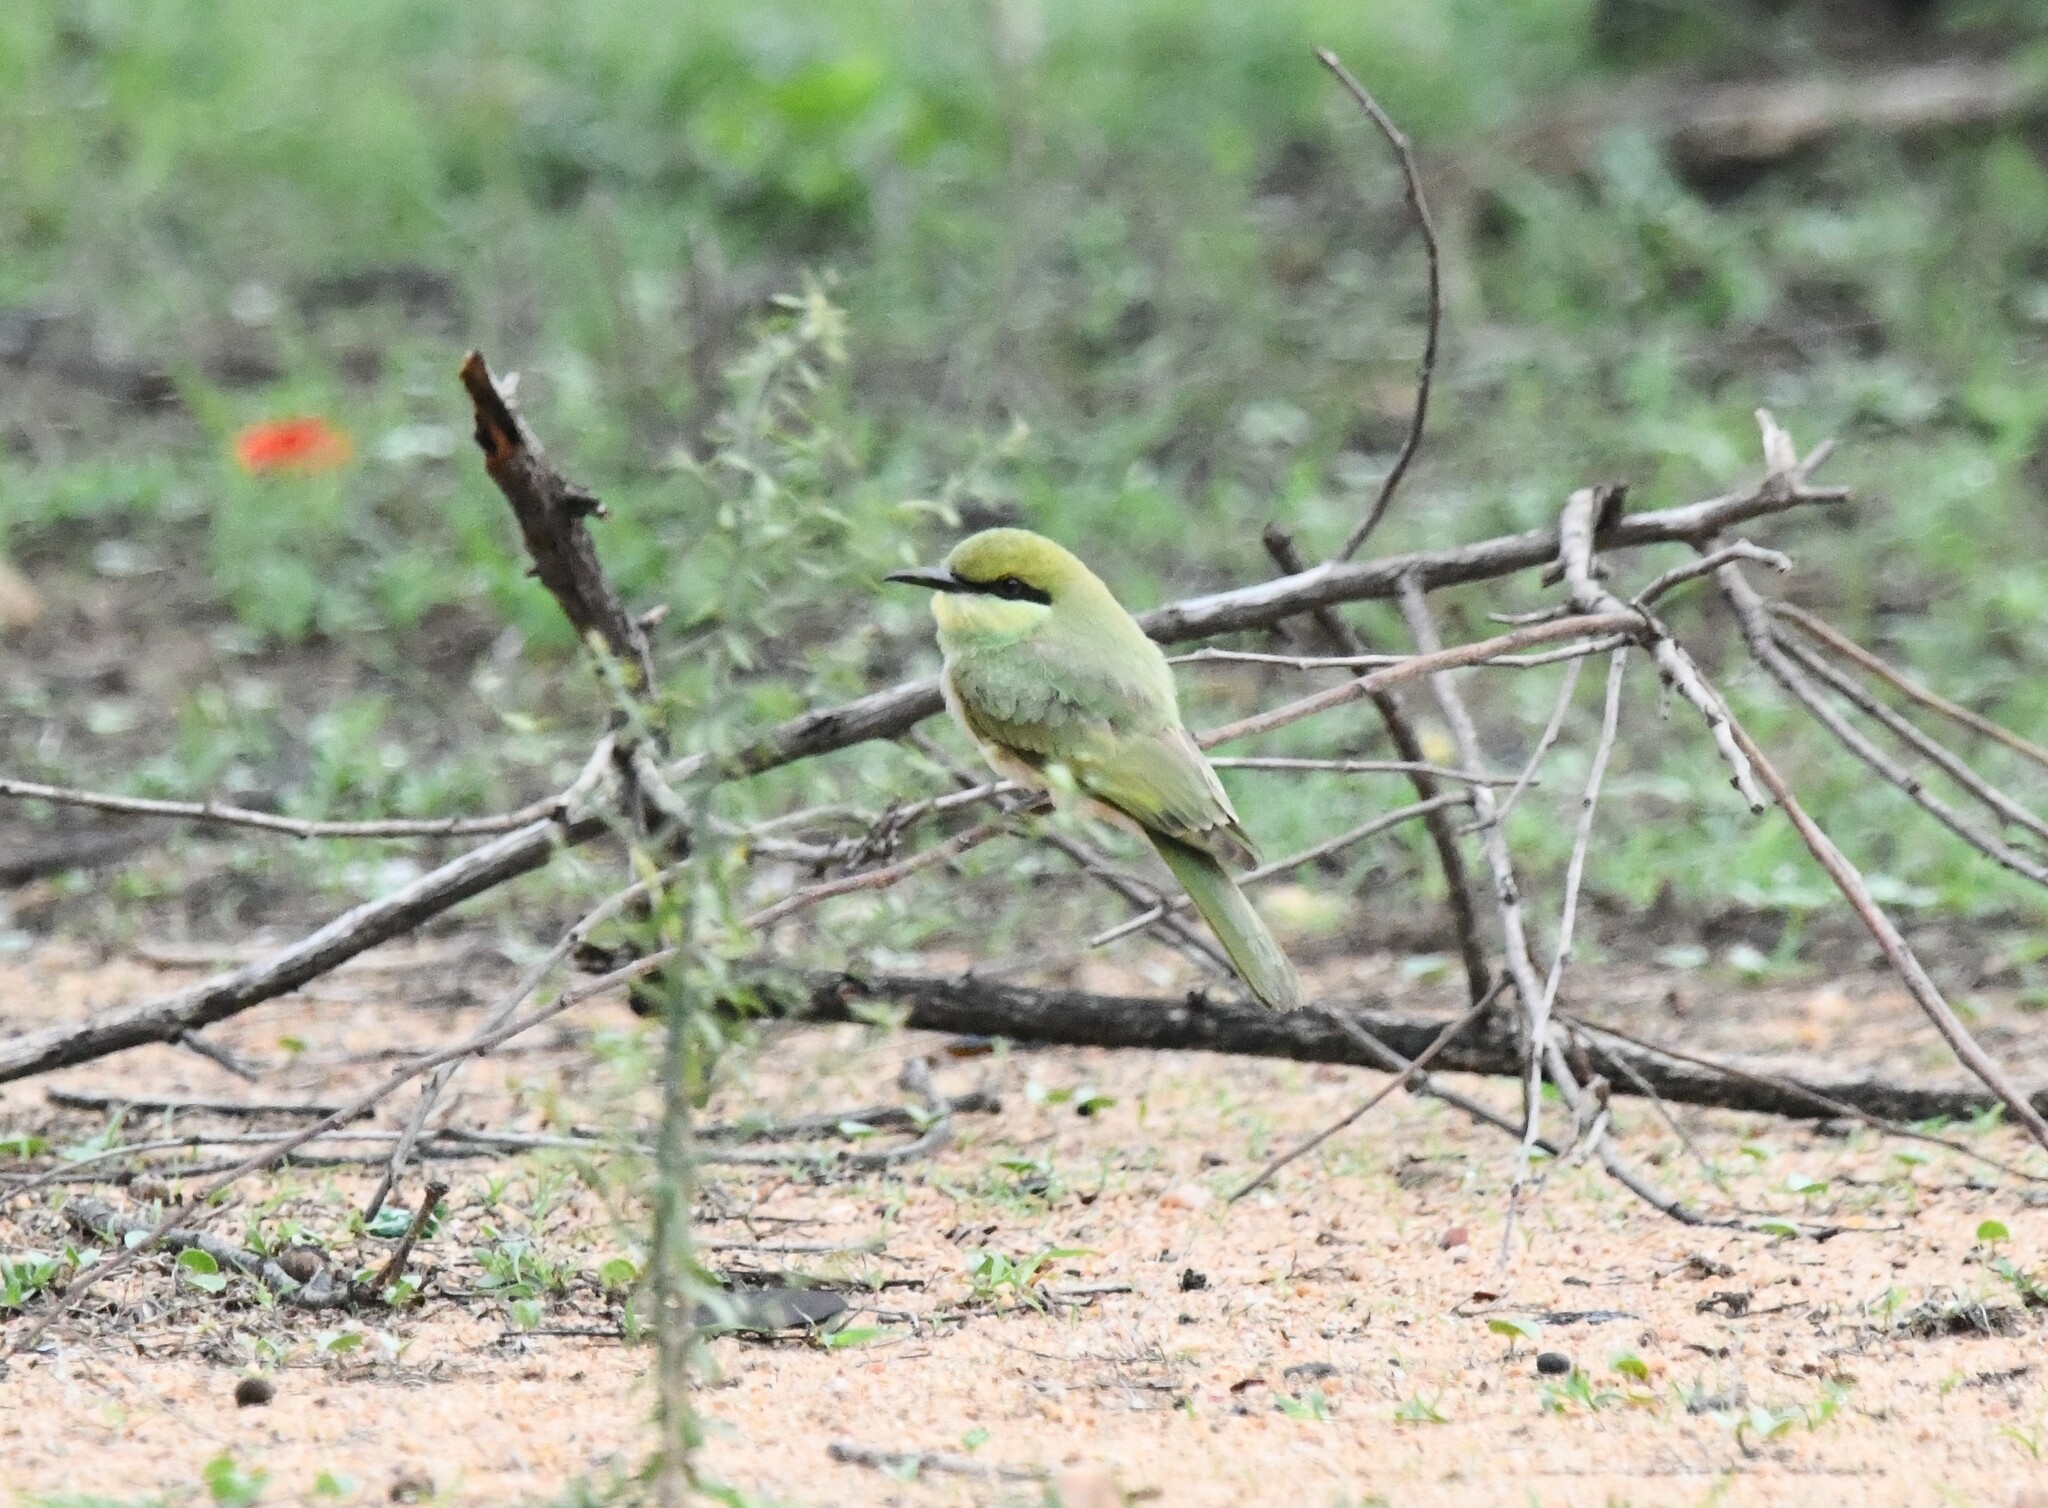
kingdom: Animalia
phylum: Chordata
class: Aves
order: Coraciiformes
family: Meropidae
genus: Merops
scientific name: Merops orientalis
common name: Green bee-eater
